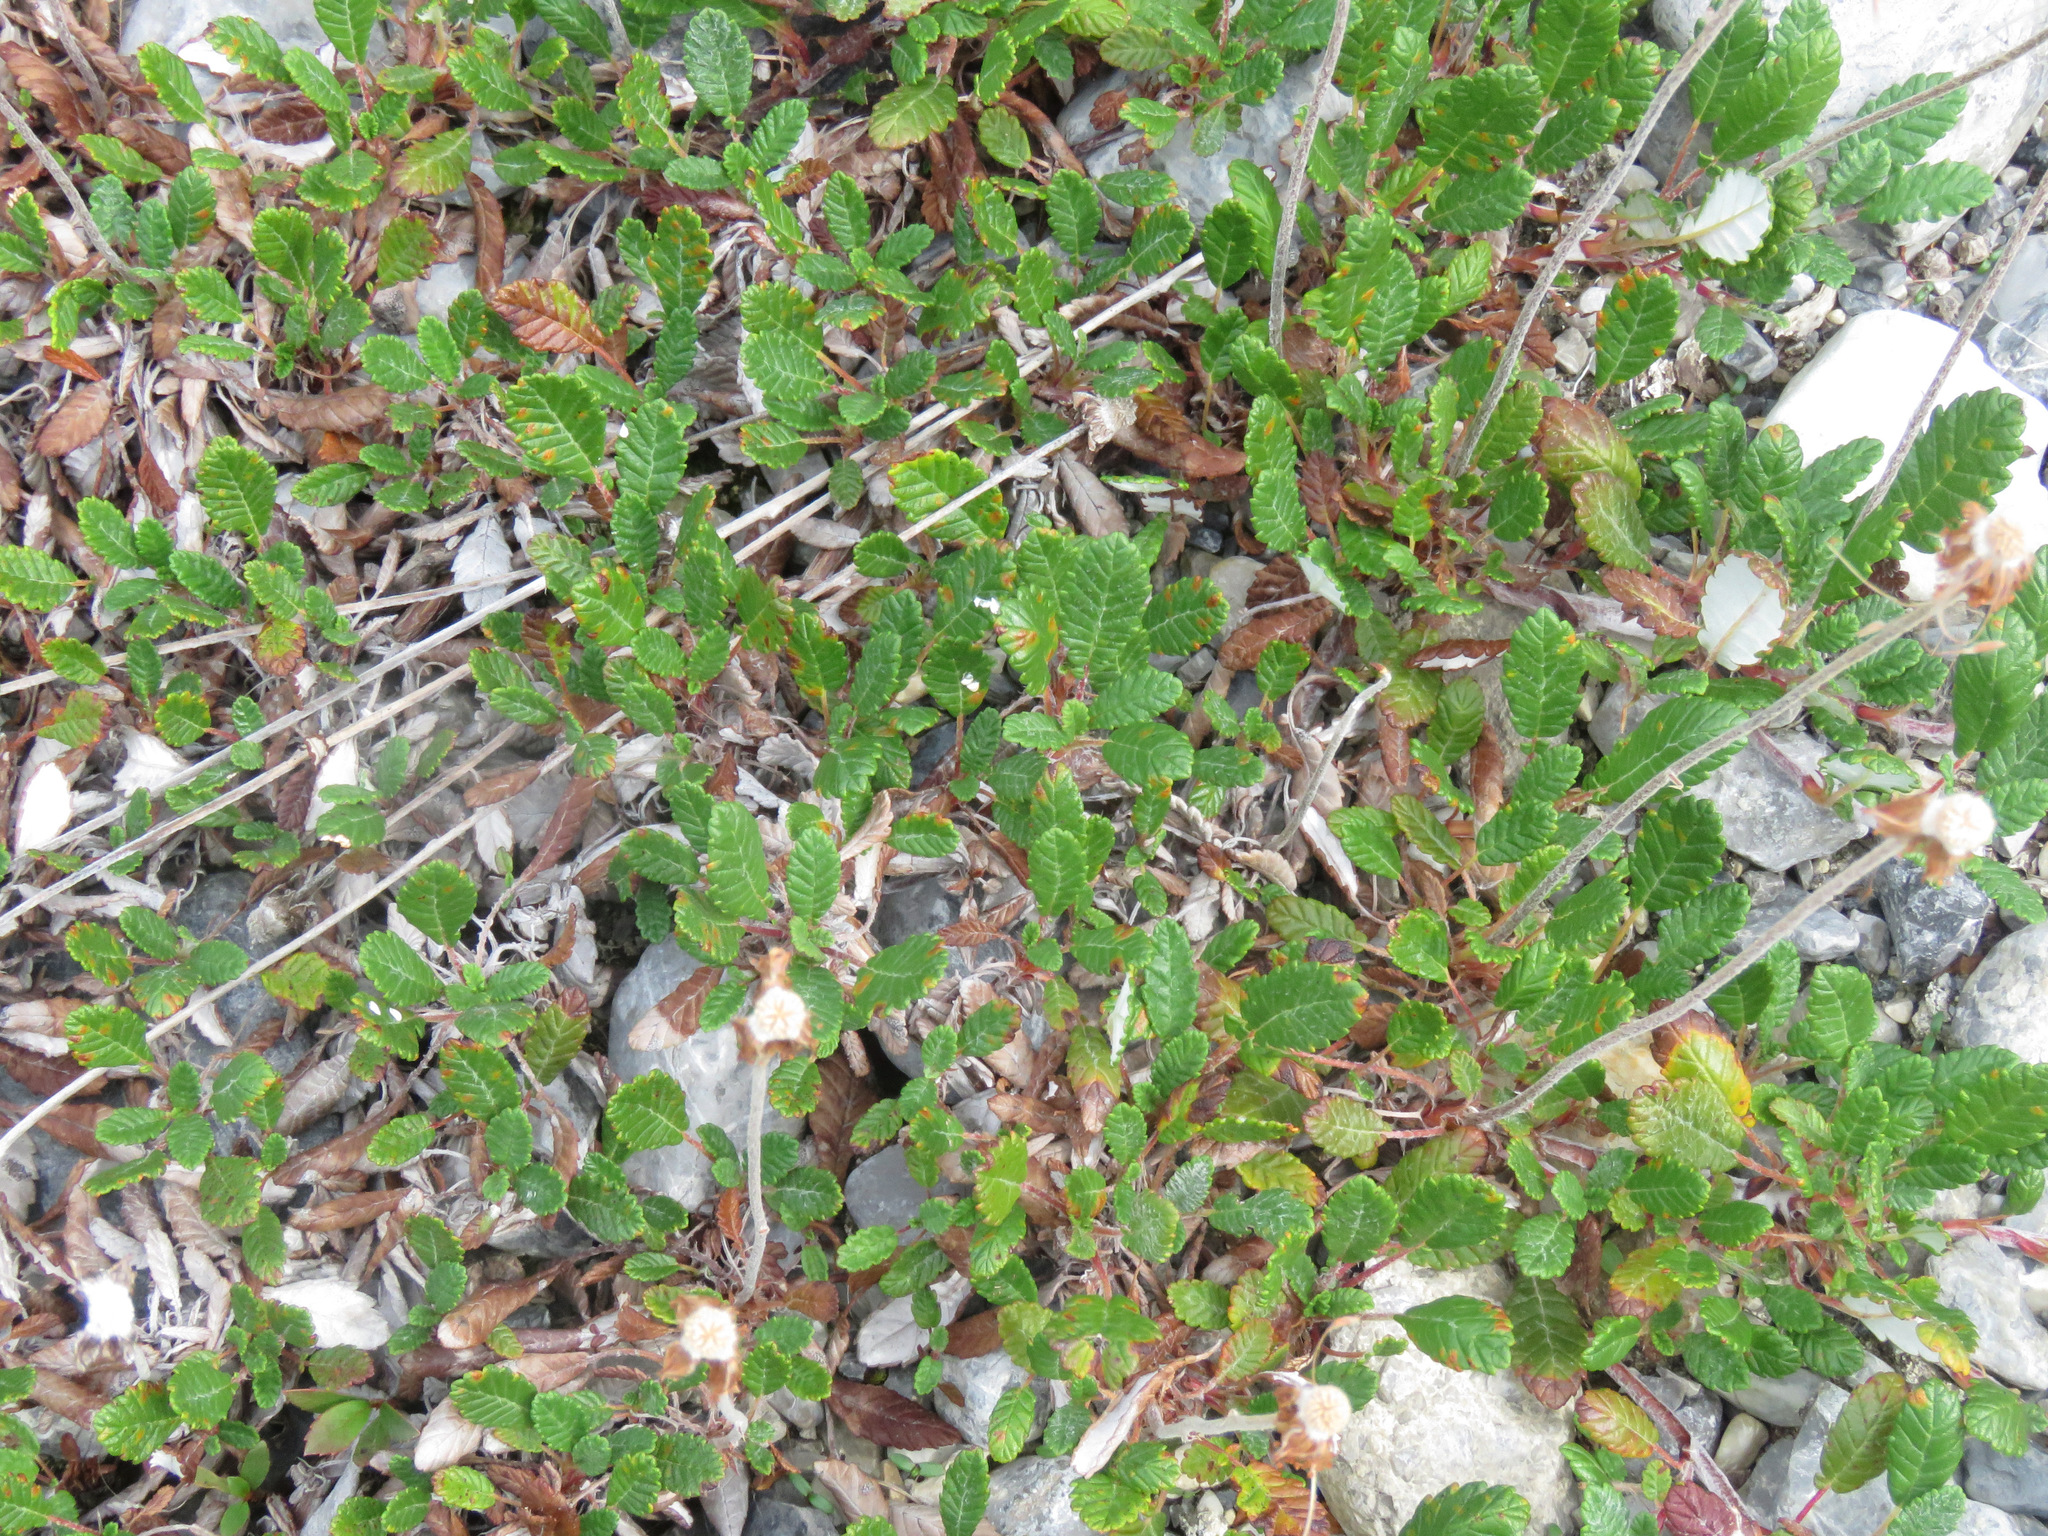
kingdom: Plantae
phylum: Tracheophyta
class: Magnoliopsida
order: Rosales
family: Rosaceae
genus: Dryas
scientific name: Dryas drummondii
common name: Drummond's dryad
